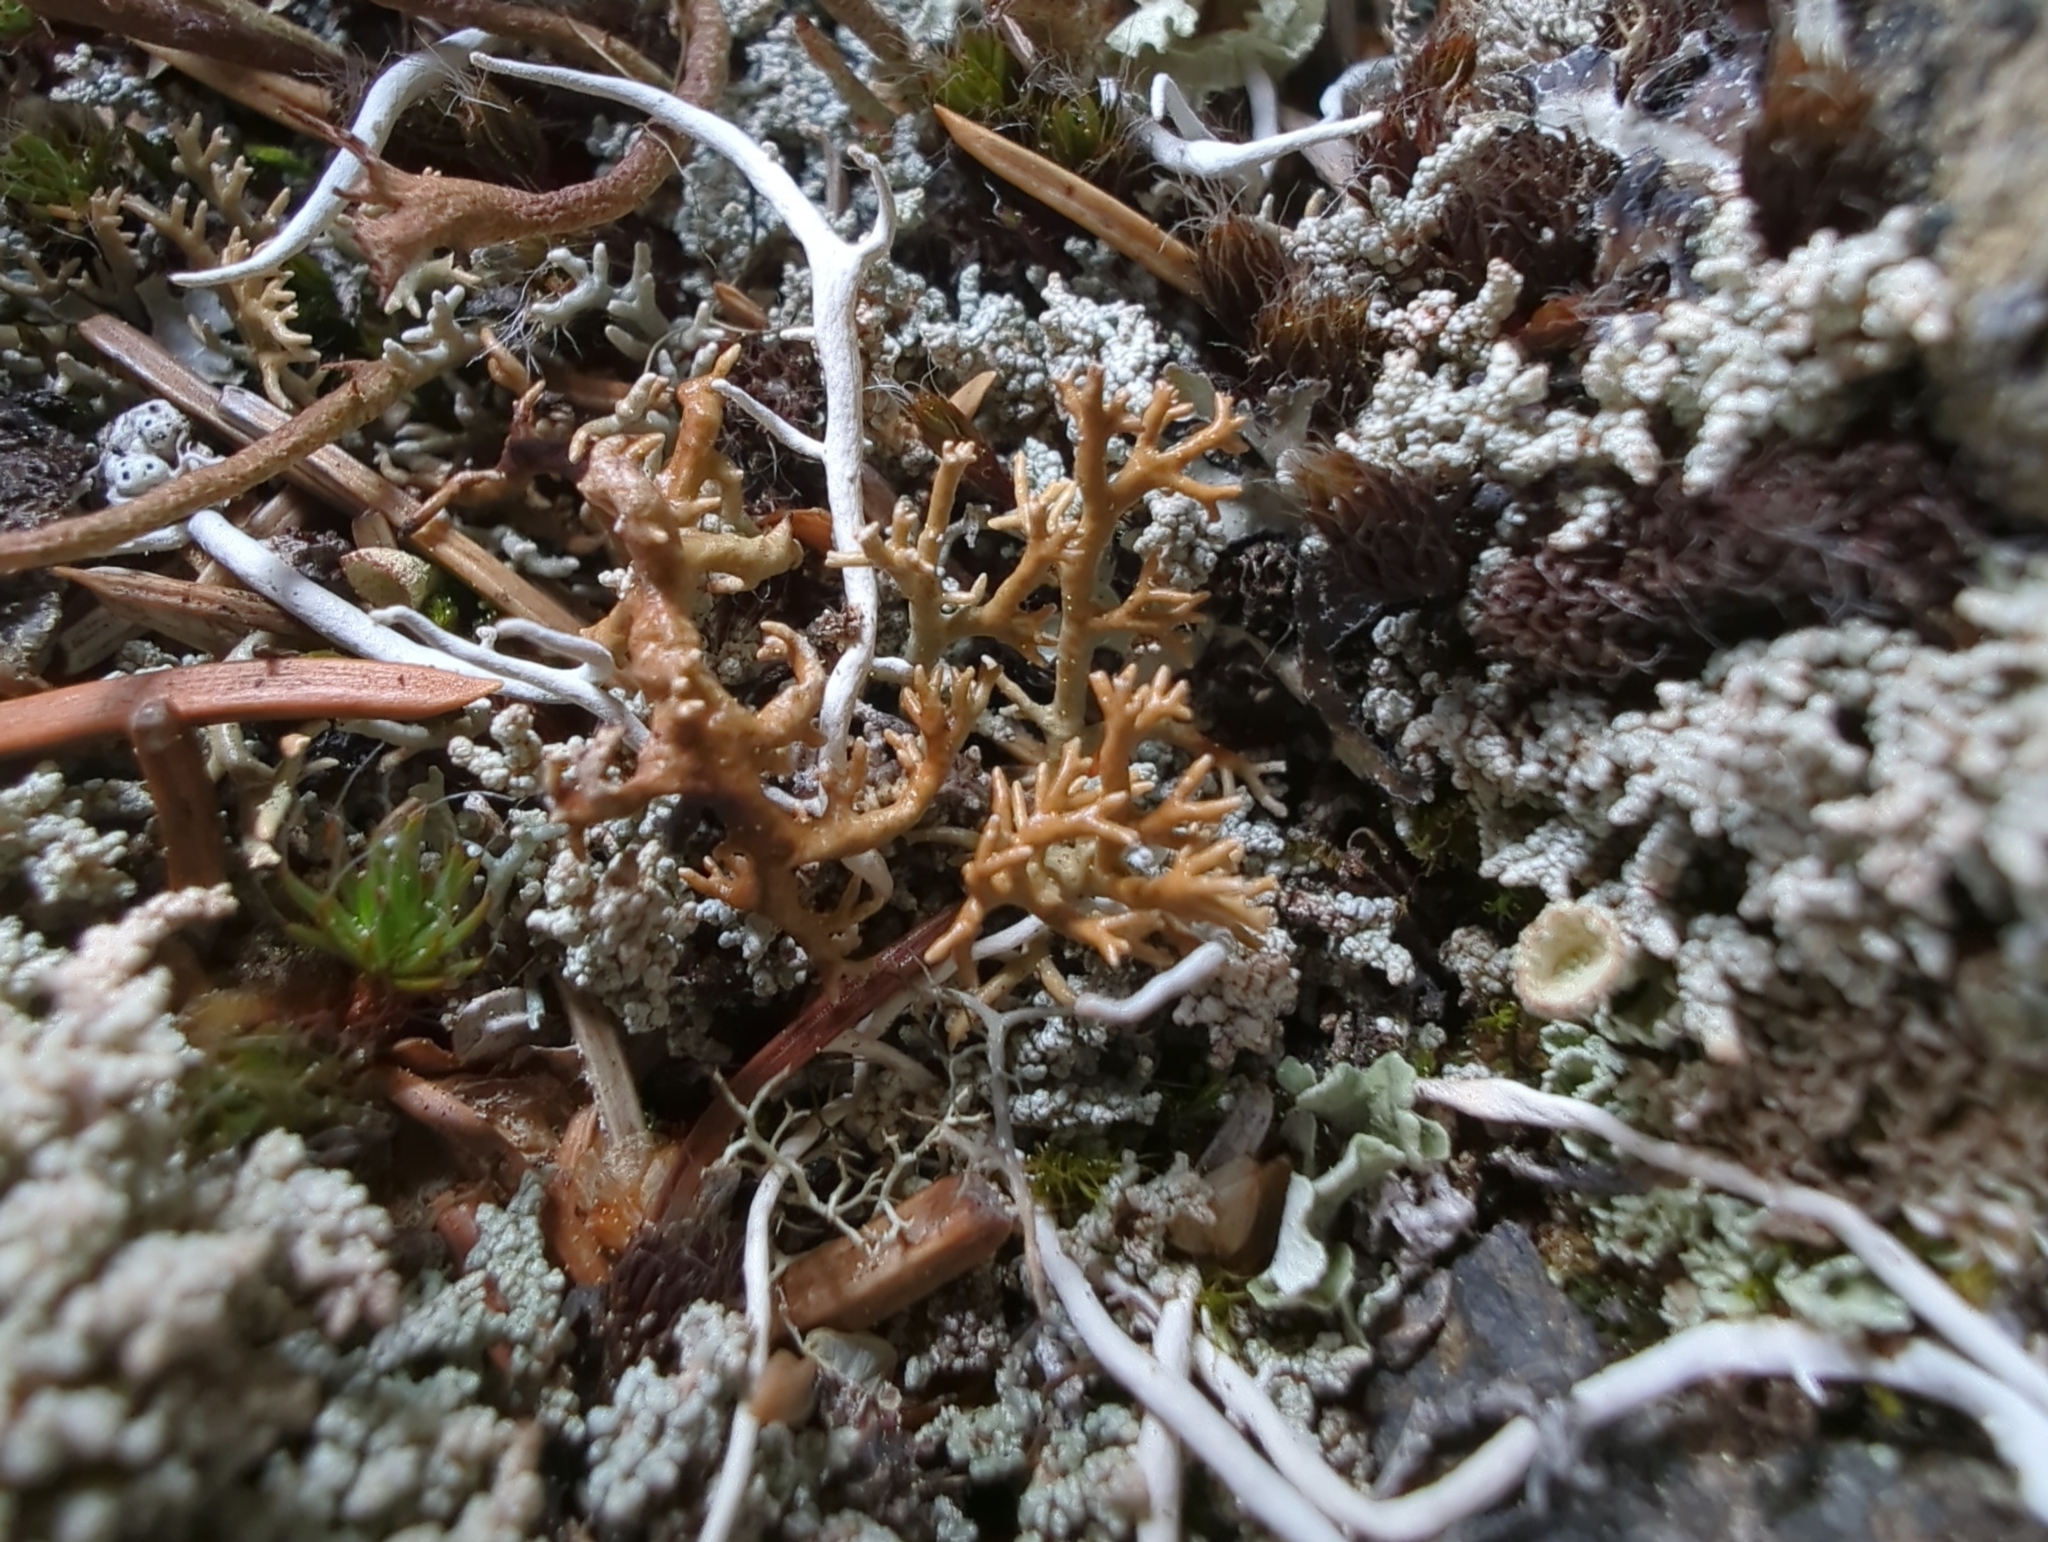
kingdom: Fungi
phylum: Ascomycota
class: Lecanoromycetes
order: Lecanorales
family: Sphaerophoraceae
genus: Sphaerophorus
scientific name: Sphaerophorus globosus
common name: Globe ball lichen
